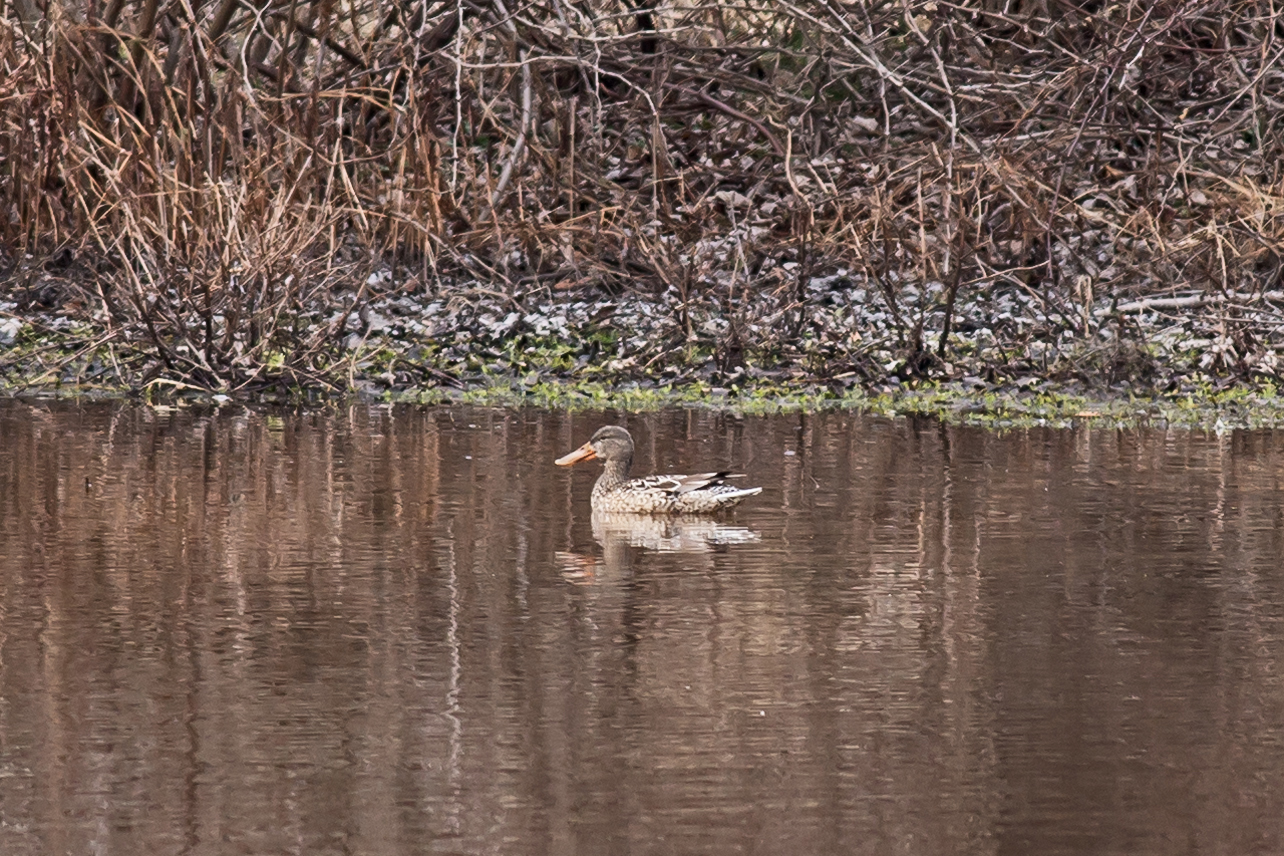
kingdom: Animalia
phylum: Chordata
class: Aves
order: Anseriformes
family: Anatidae
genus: Spatula
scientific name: Spatula clypeata
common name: Northern shoveler
